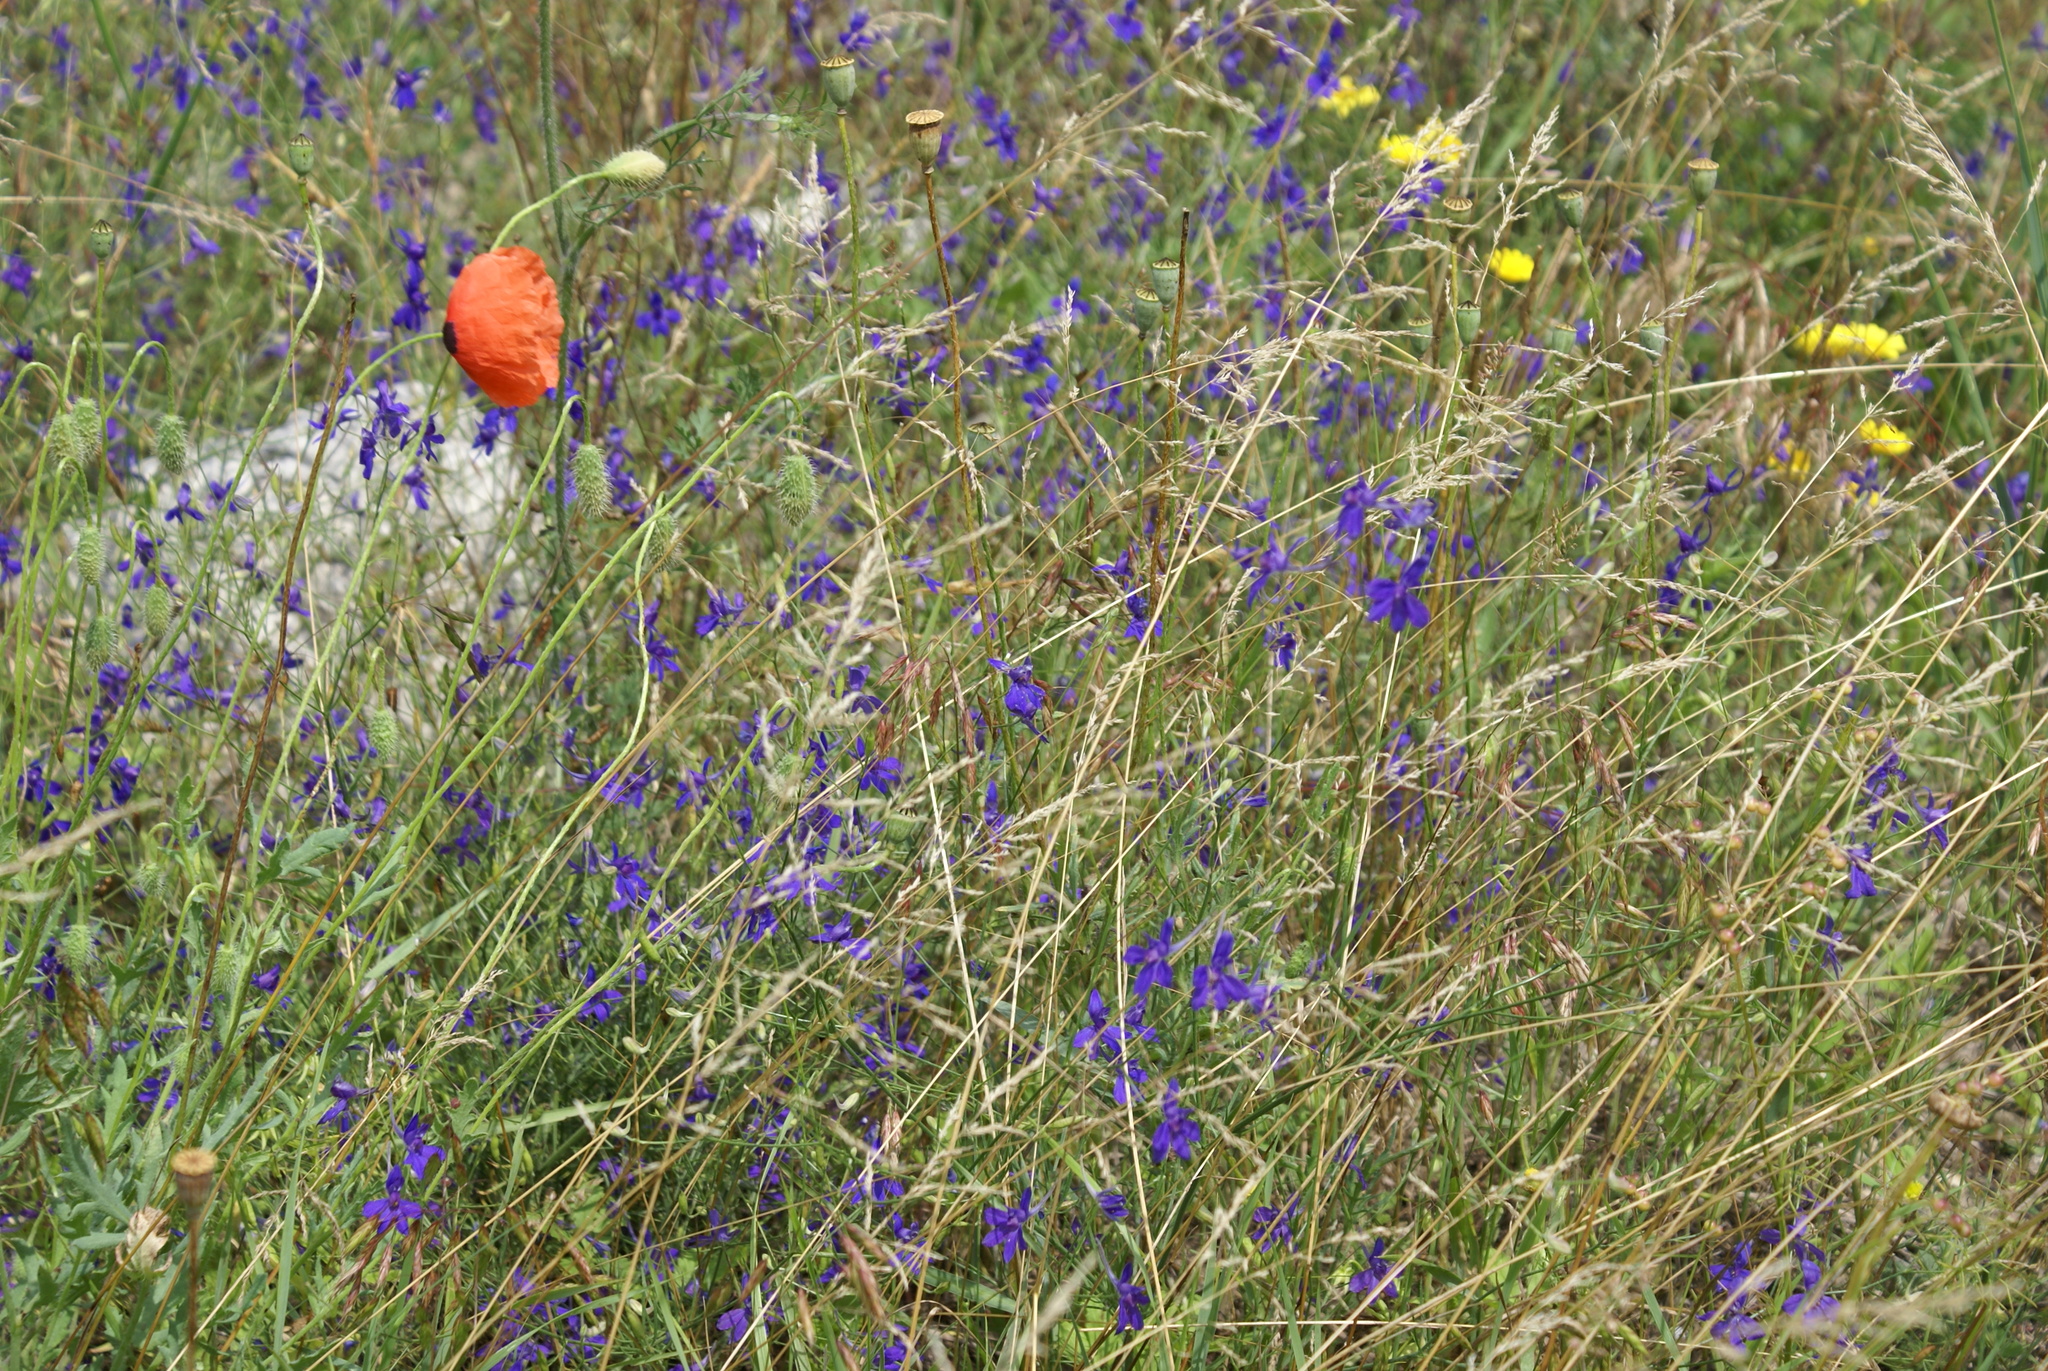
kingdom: Plantae
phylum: Tracheophyta
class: Magnoliopsida
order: Ranunculales
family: Papaveraceae
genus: Papaver
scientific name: Papaver rhoeas
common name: Corn poppy
